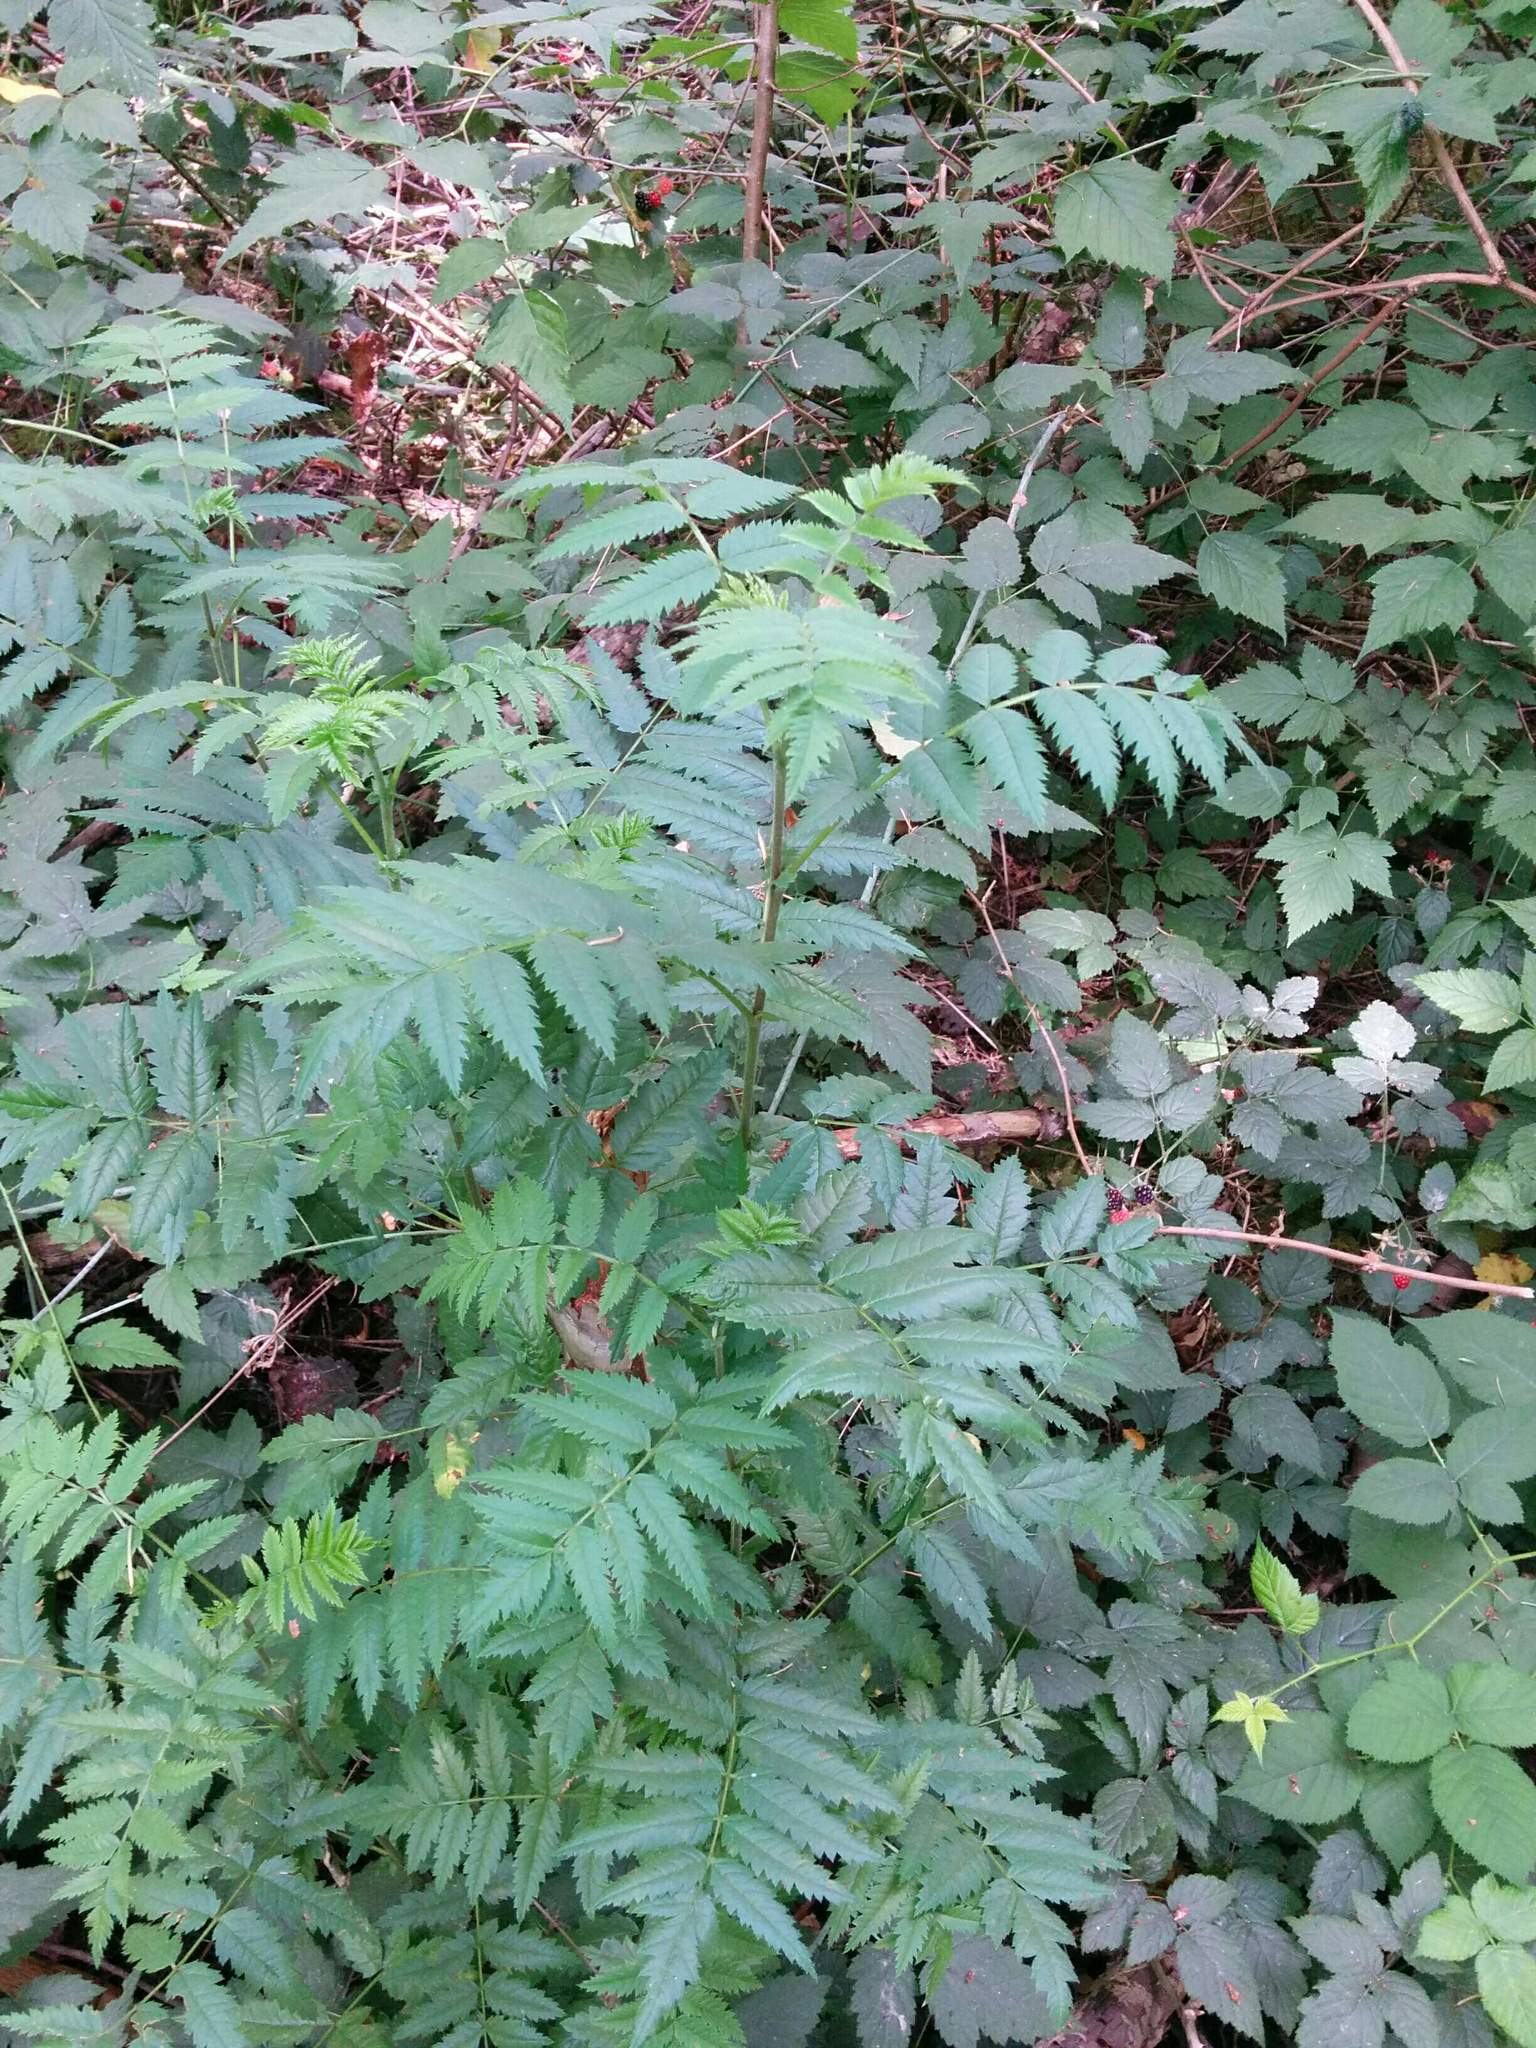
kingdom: Plantae
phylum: Tracheophyta
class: Magnoliopsida
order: Rosales
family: Rosaceae
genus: Sorbus
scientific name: Sorbus aucuparia
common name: Rowan
